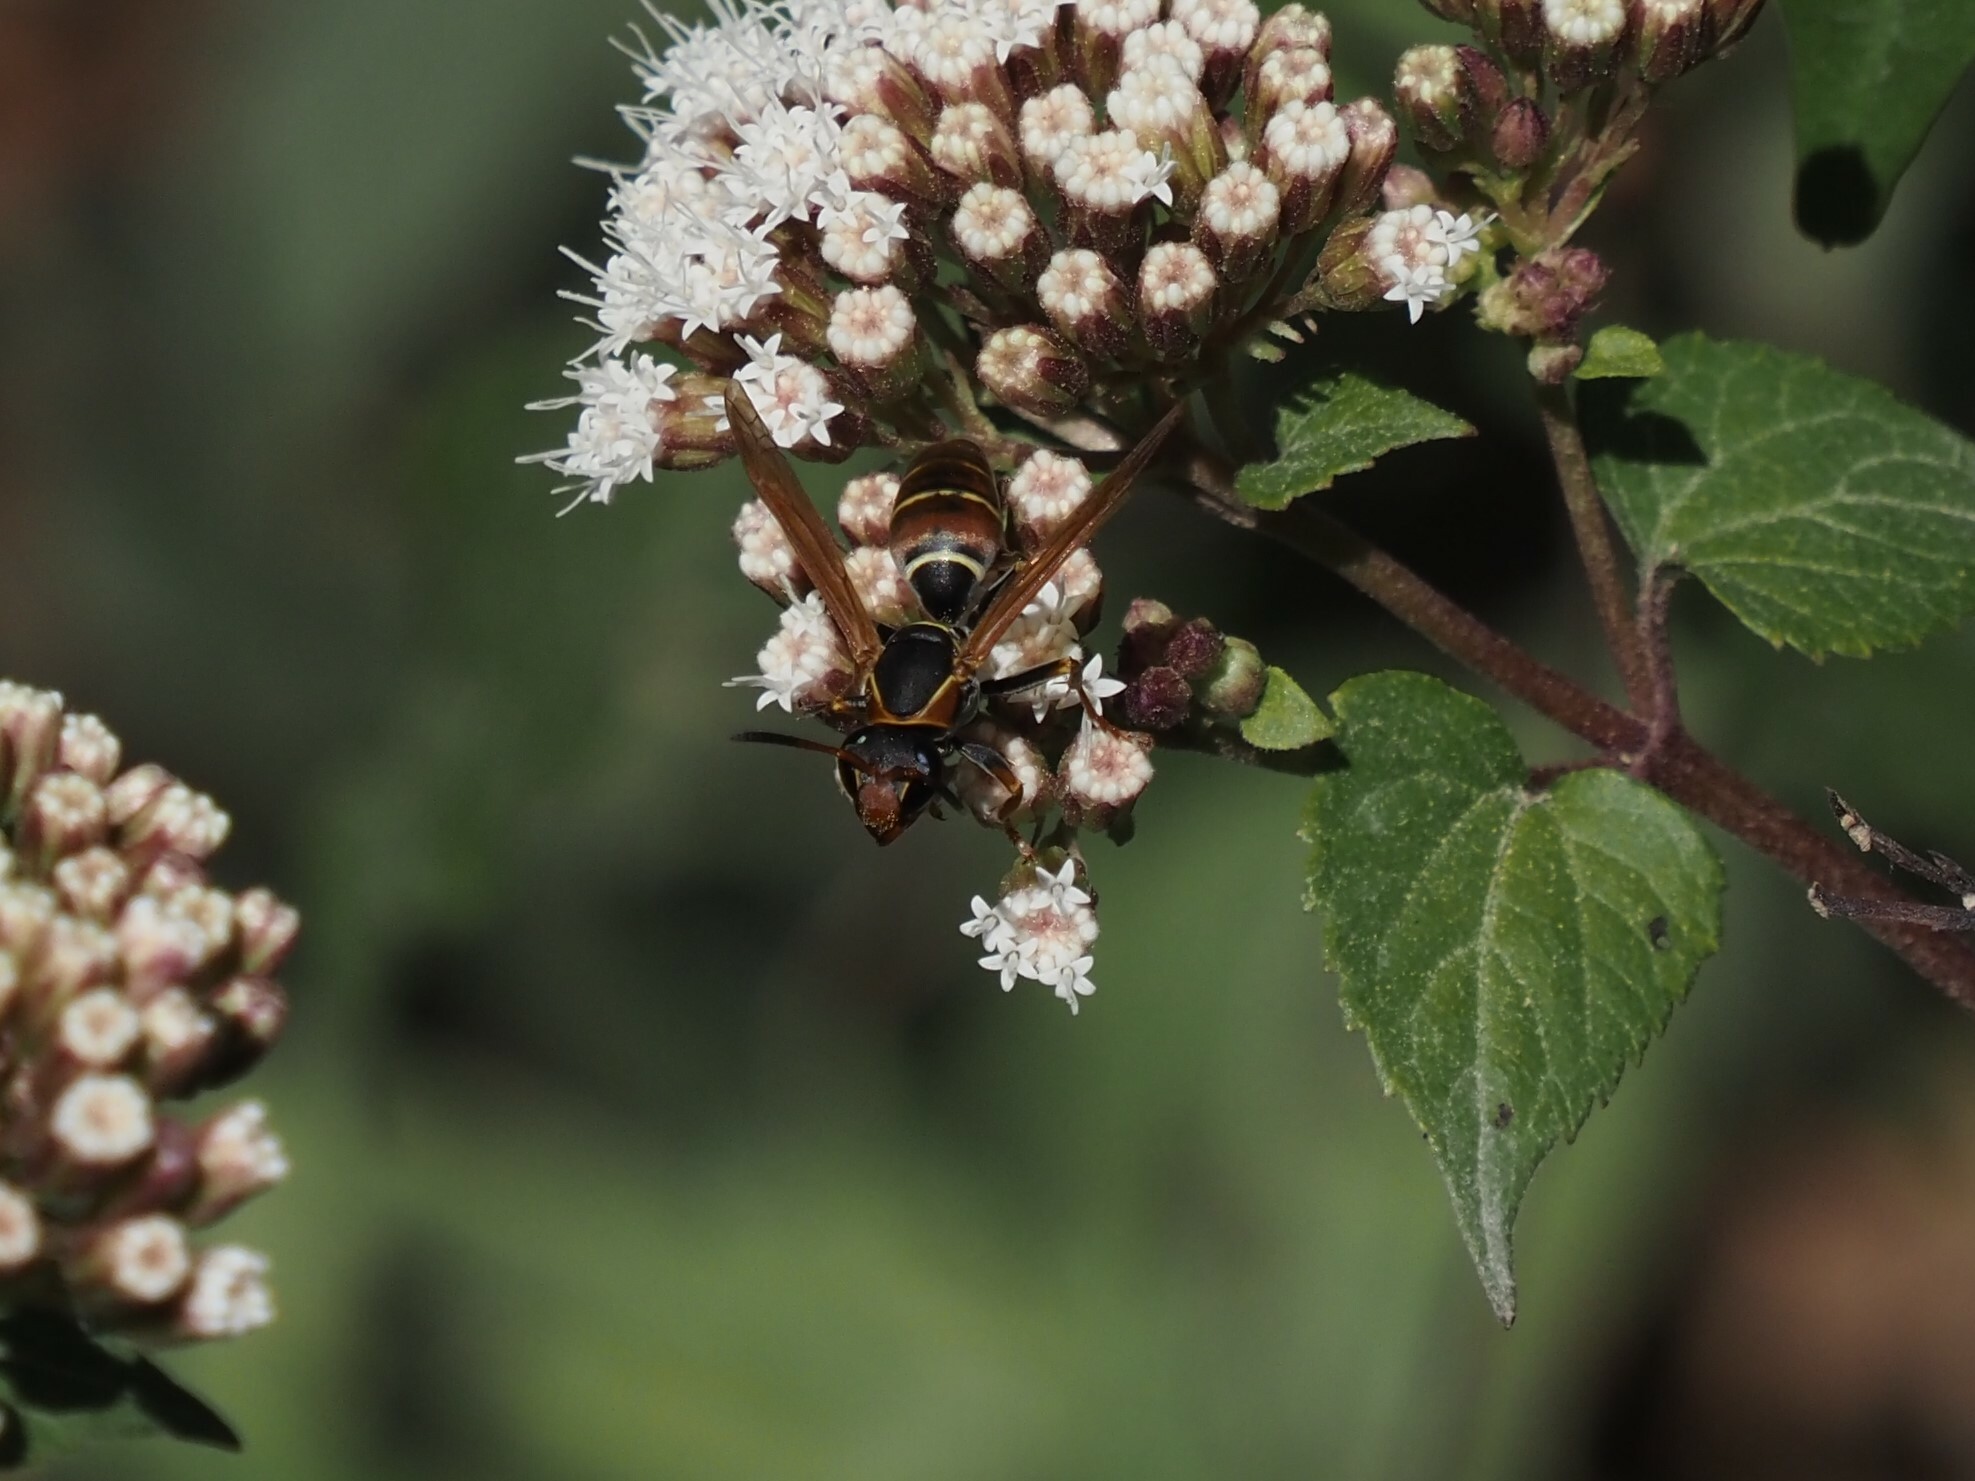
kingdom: Animalia
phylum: Arthropoda
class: Insecta
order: Hymenoptera
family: Eumenidae
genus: Polistes
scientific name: Polistes pacificus
